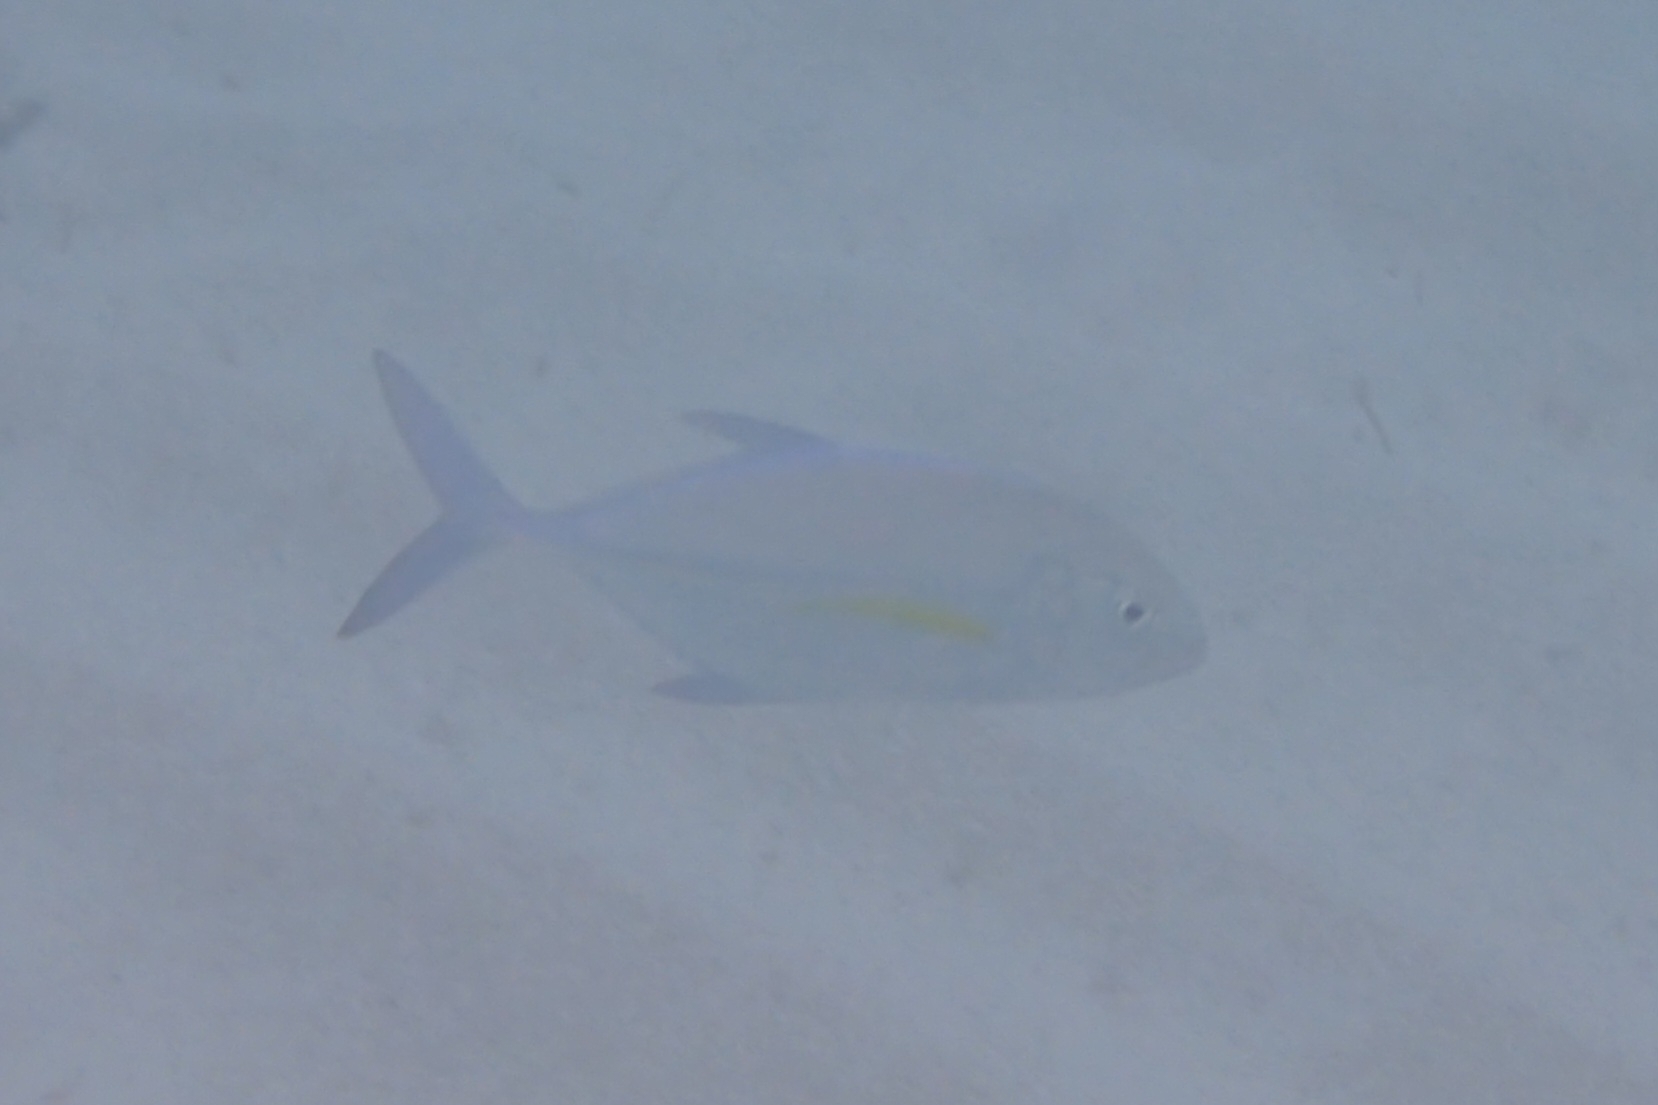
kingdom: Animalia
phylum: Chordata
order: Perciformes
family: Carangidae
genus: Caranx
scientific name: Caranx melampygus
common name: Bluefin trevally
